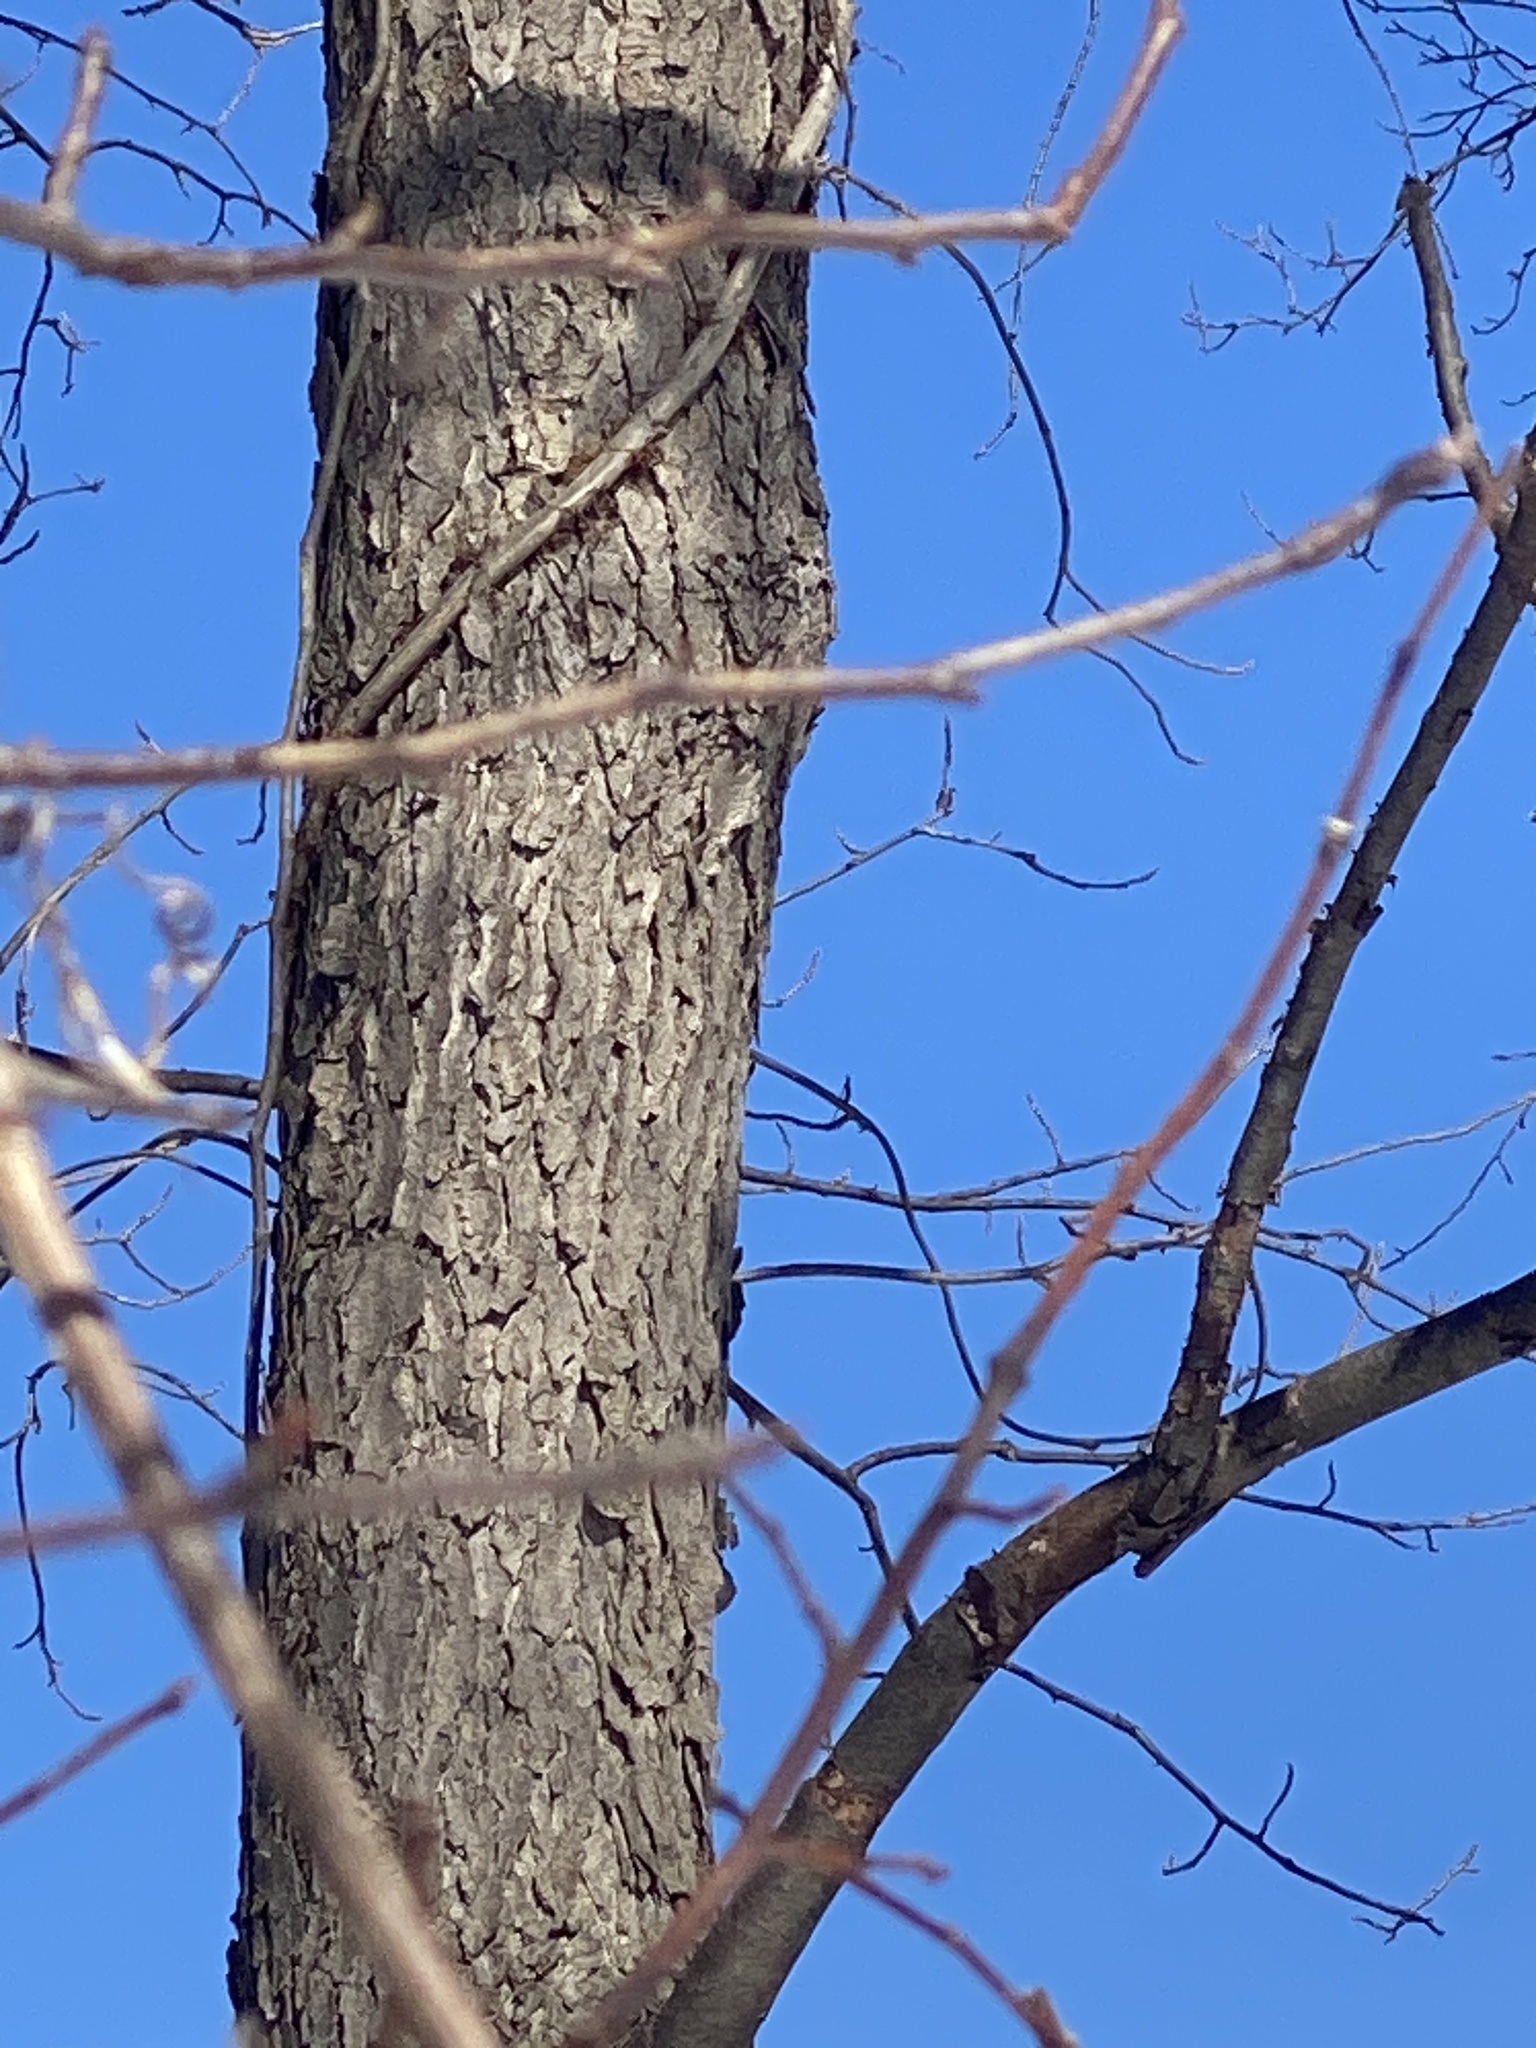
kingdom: Plantae
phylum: Tracheophyta
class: Magnoliopsida
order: Rosales
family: Rosaceae
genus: Prunus
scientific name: Prunus serotina
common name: Black cherry
